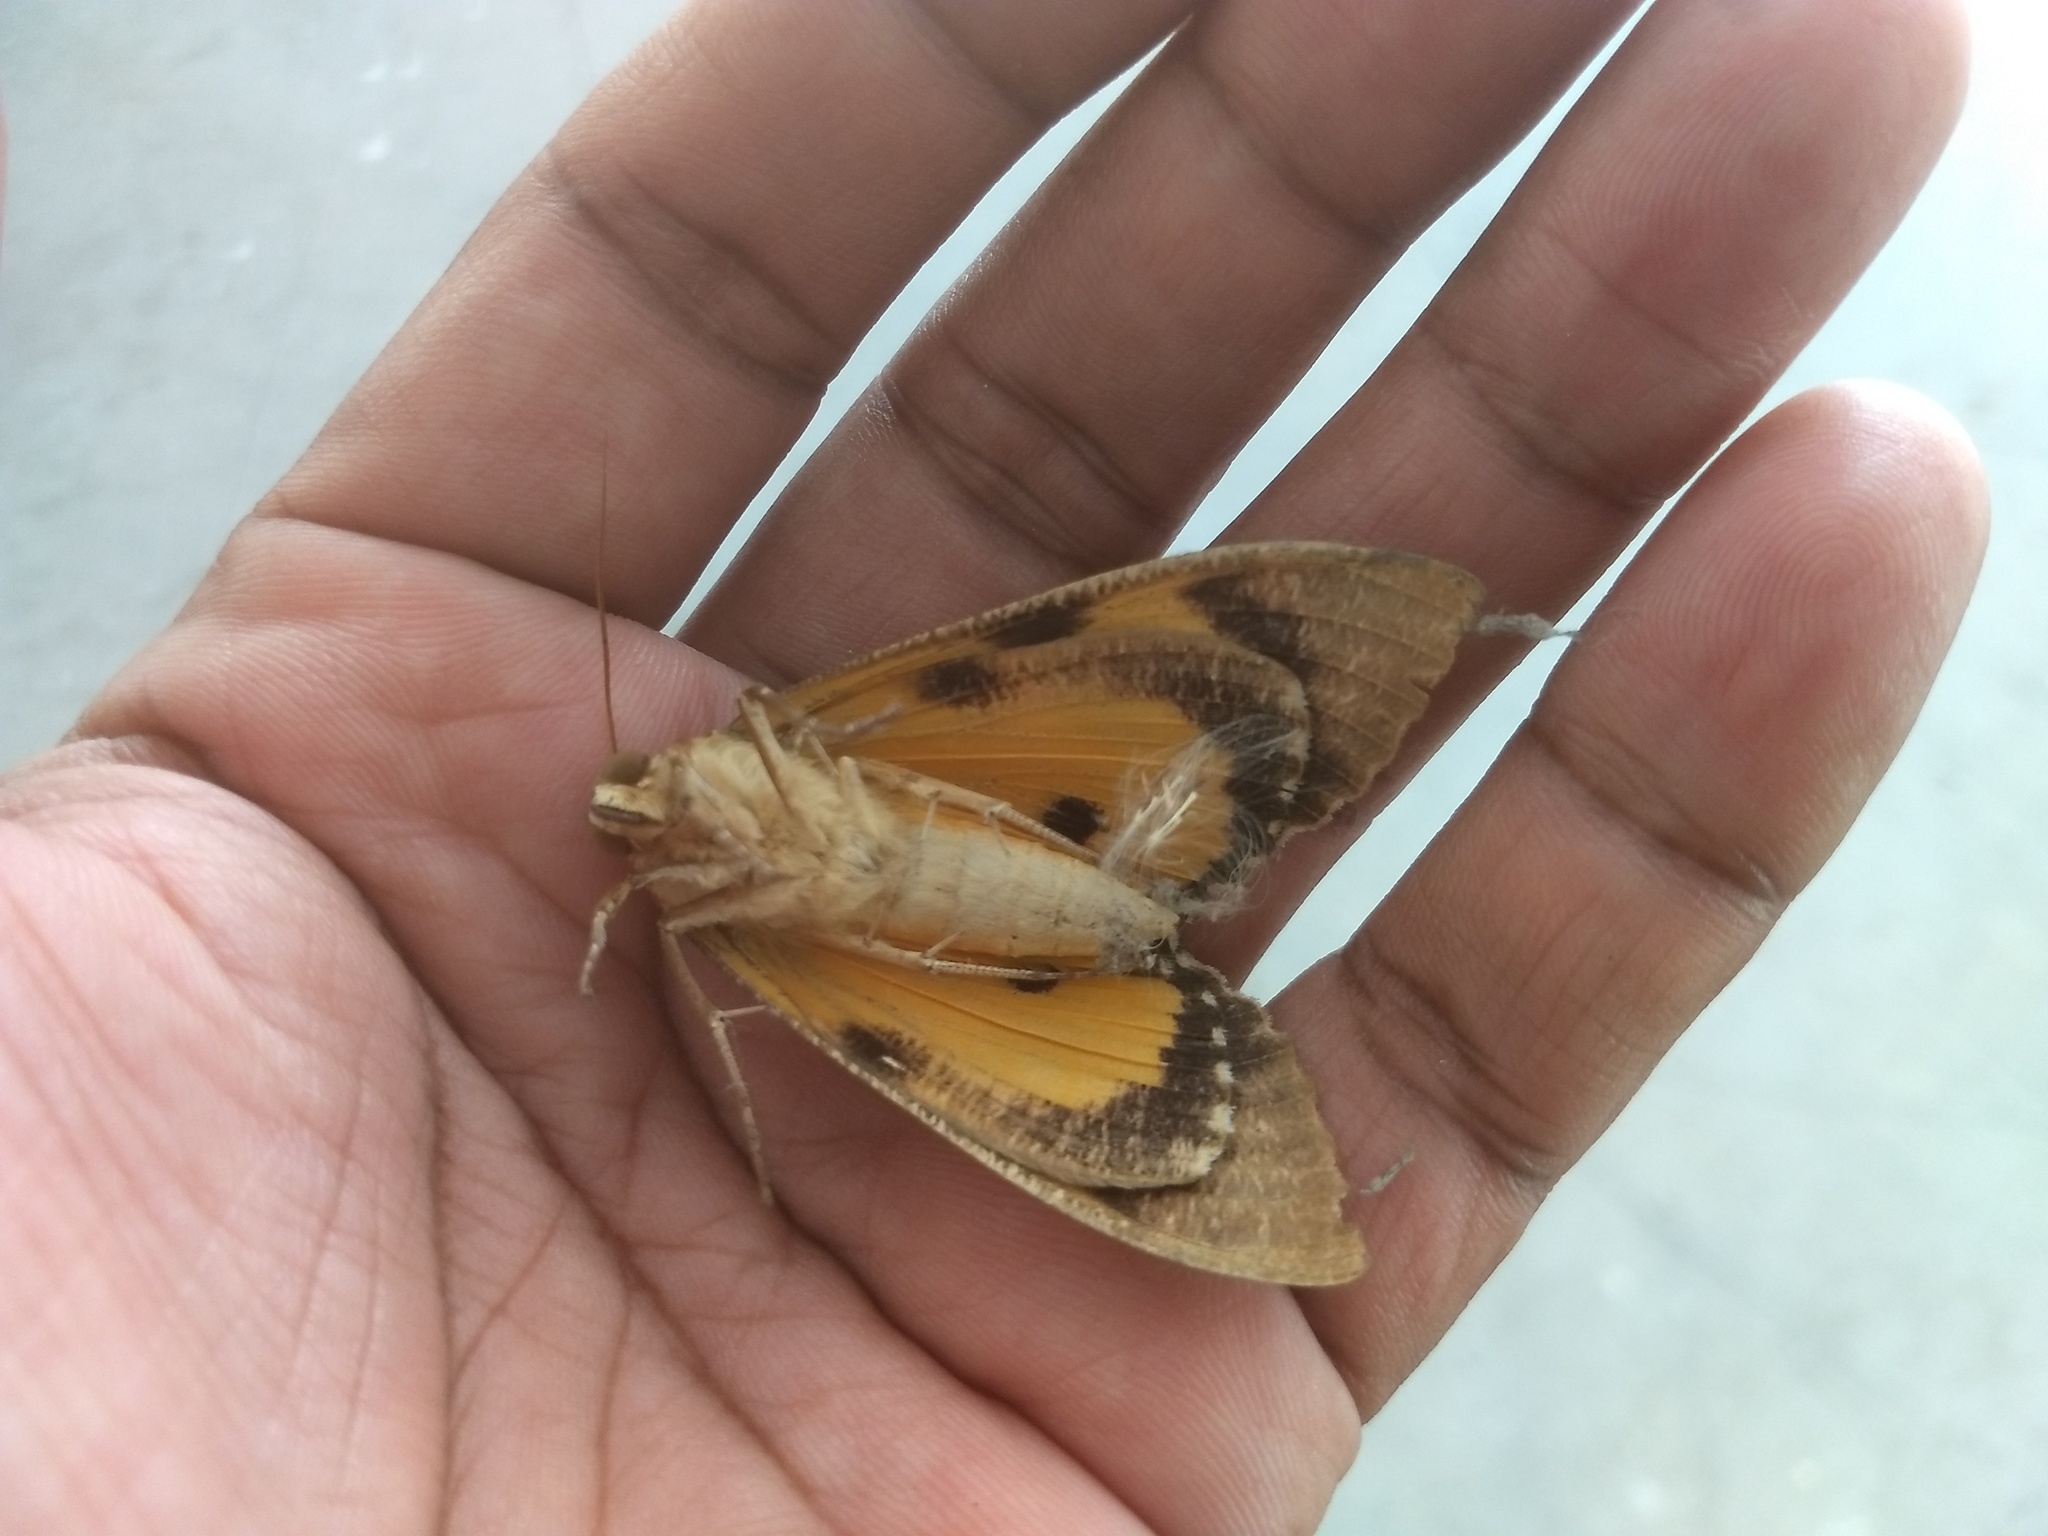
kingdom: Animalia
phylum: Arthropoda
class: Insecta
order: Lepidoptera
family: Erebidae
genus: Eudocima
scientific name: Eudocima materna
